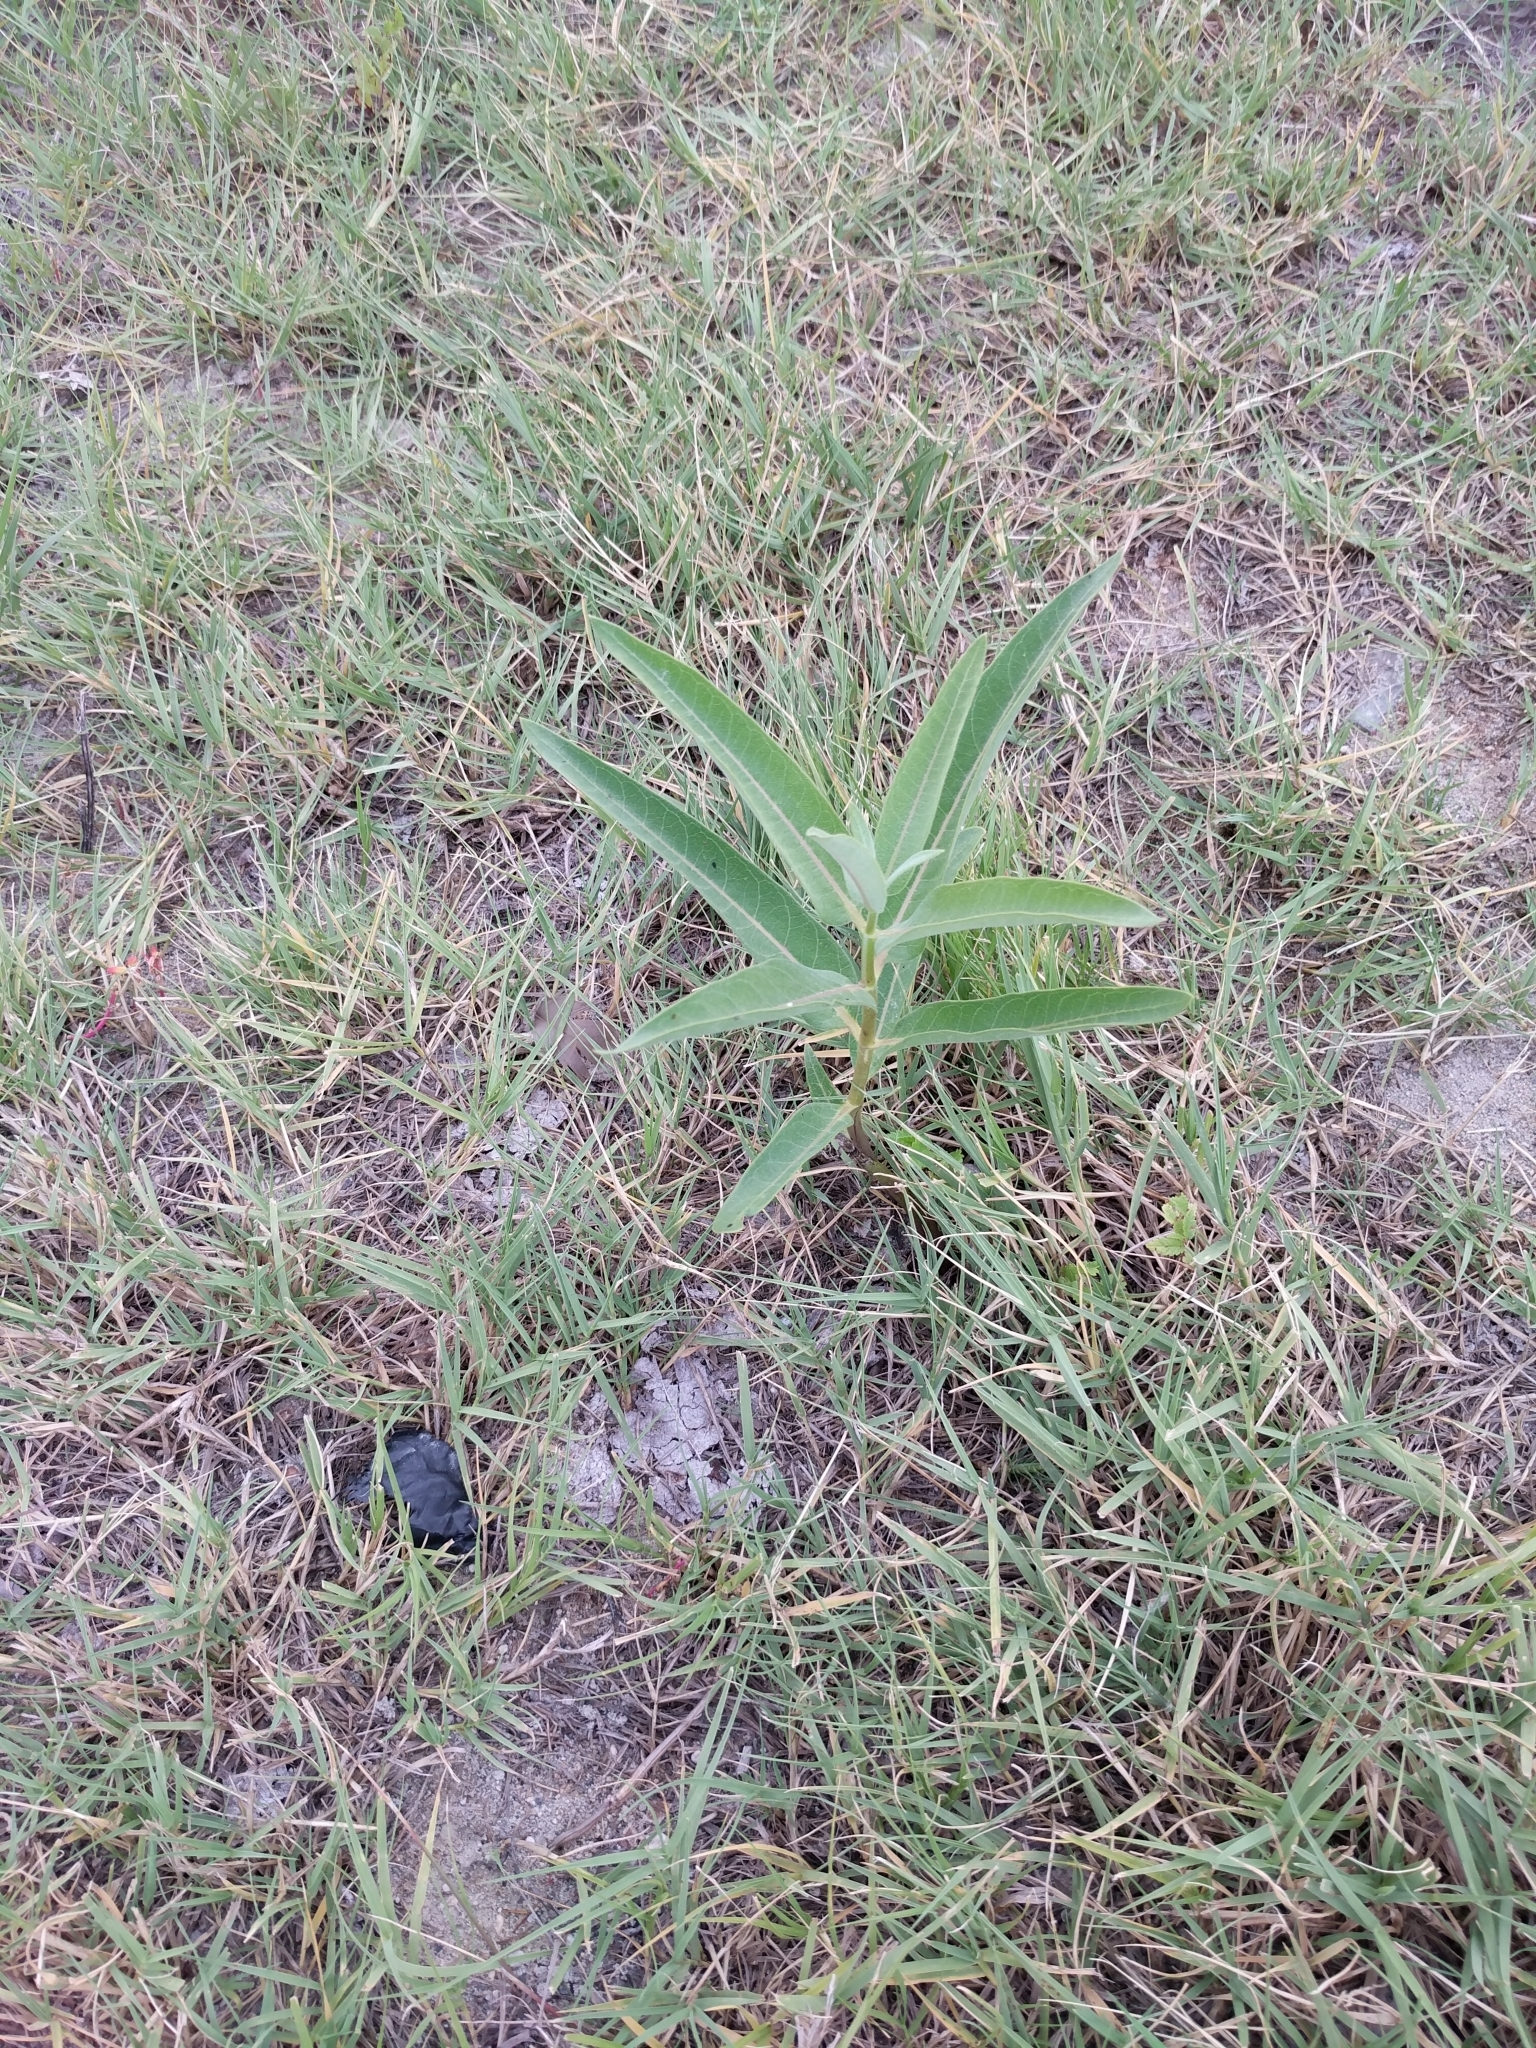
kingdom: Plantae
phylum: Tracheophyta
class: Magnoliopsida
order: Gentianales
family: Apocynaceae
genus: Asclepias
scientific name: Asclepias speciosa
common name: Showy milkweed
